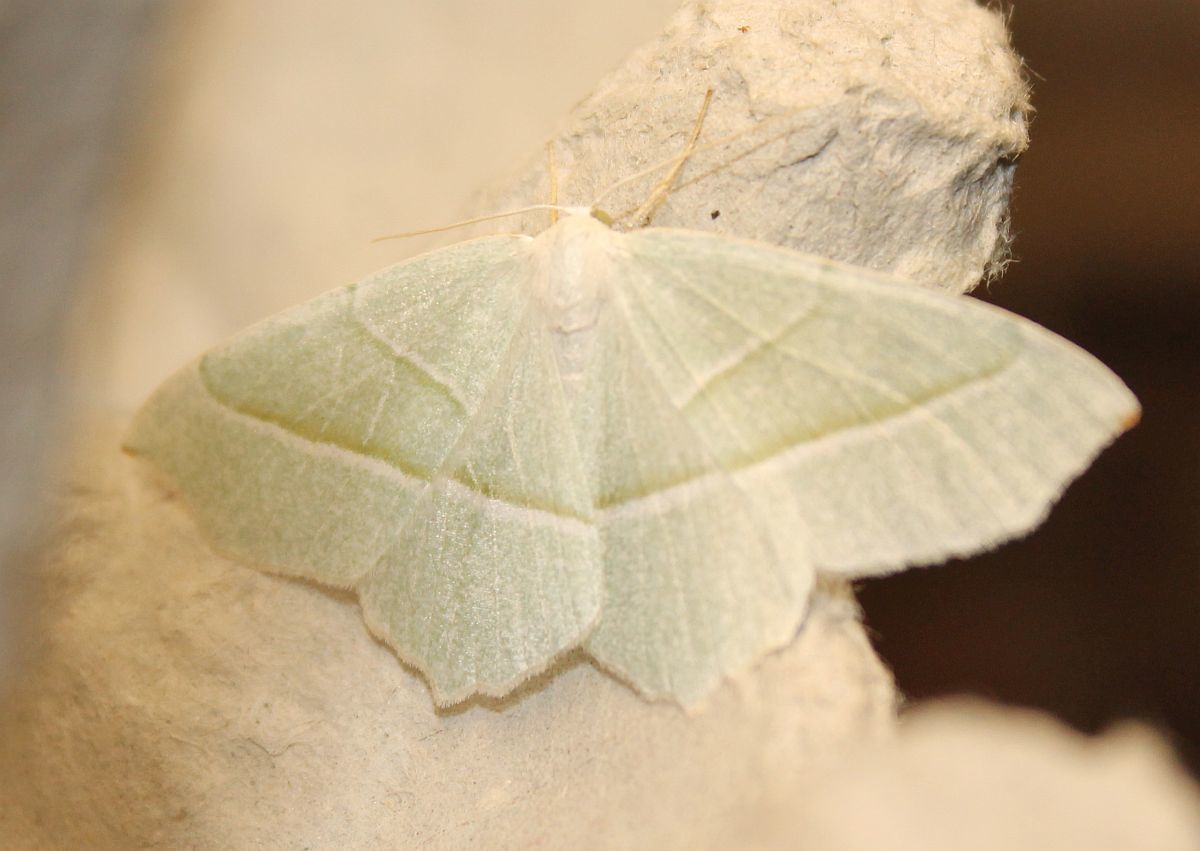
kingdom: Animalia
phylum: Arthropoda
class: Insecta
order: Lepidoptera
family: Geometridae
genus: Campaea
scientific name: Campaea margaritaria
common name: Light emerald
